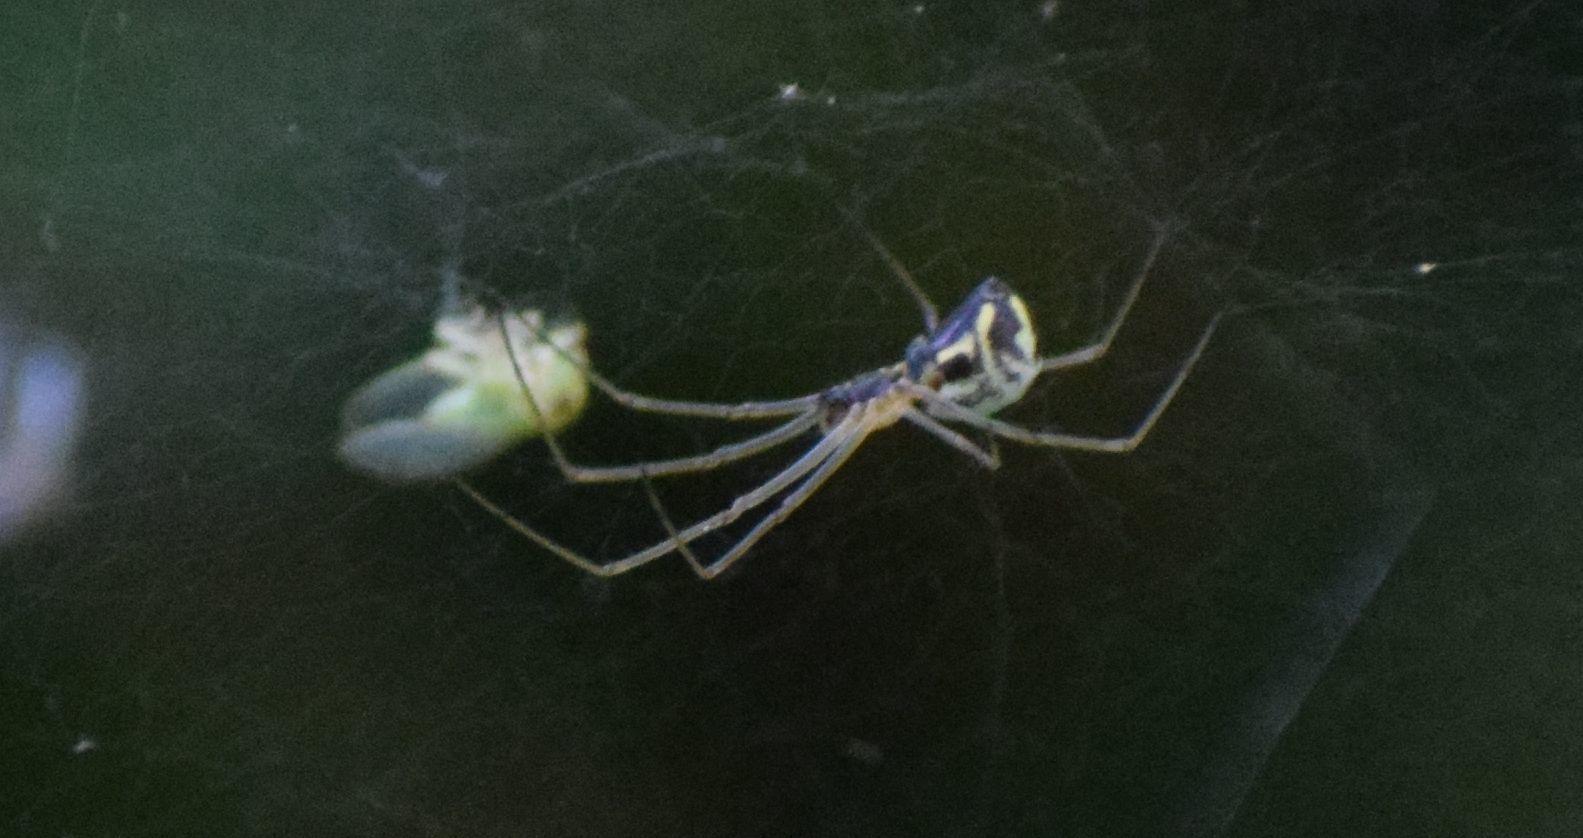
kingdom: Animalia
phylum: Arthropoda
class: Arachnida
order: Araneae
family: Linyphiidae
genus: Neriene
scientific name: Neriene radiata
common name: Filmy dome spider
